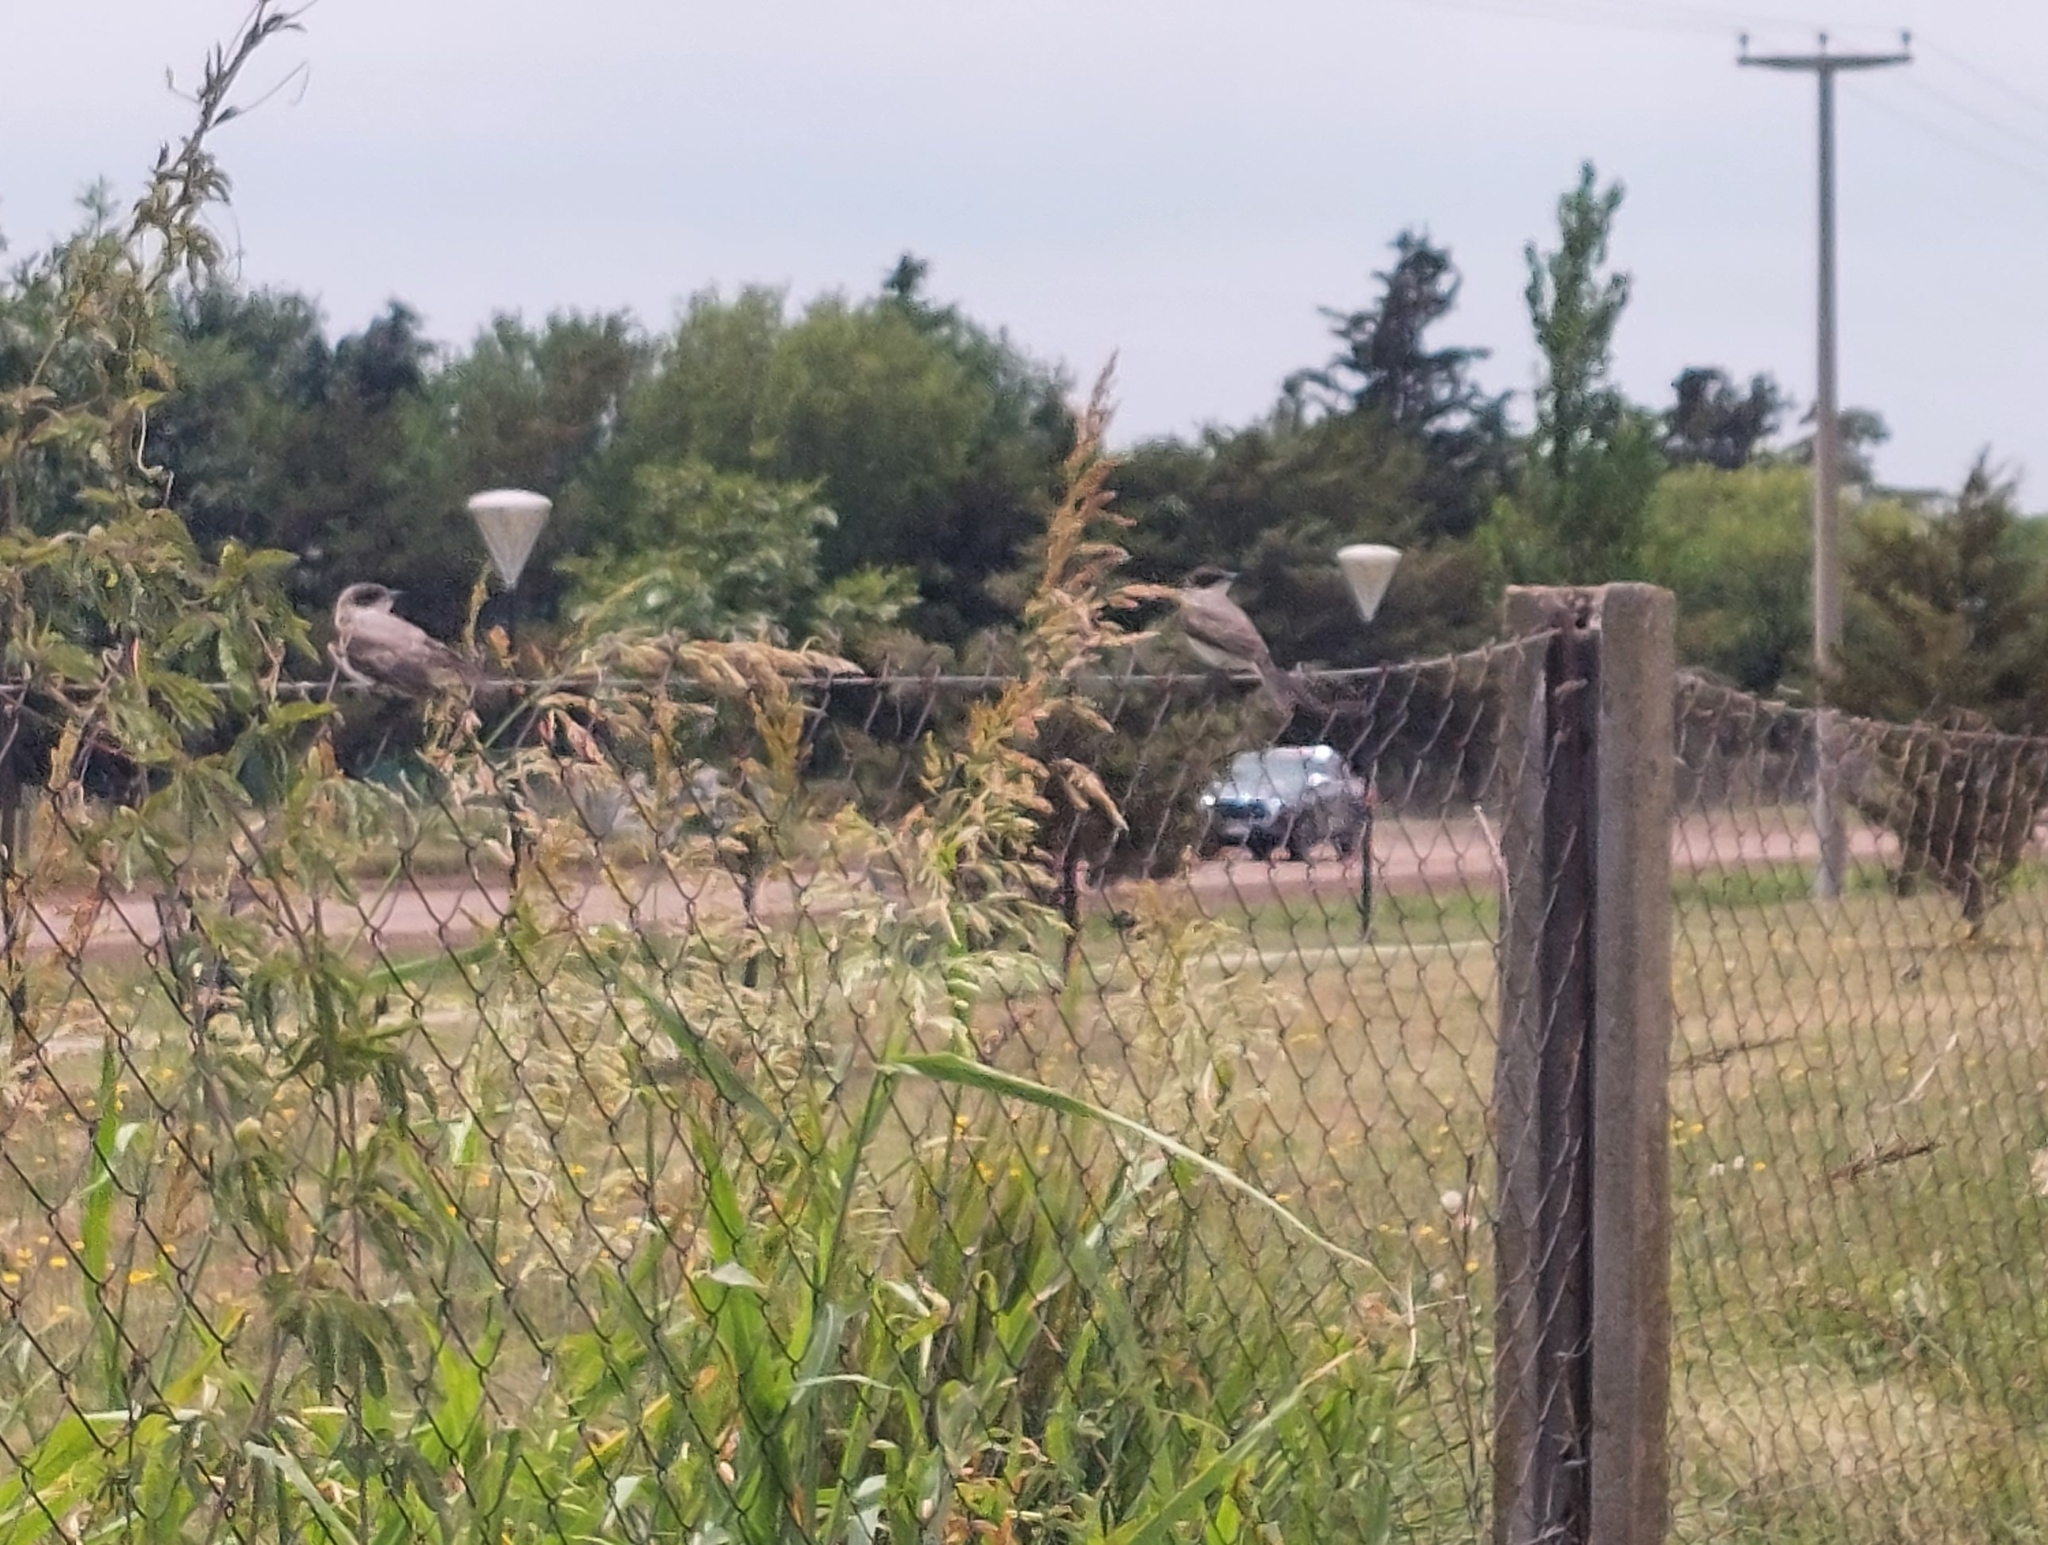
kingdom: Animalia
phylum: Chordata
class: Aves
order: Passeriformes
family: Tyrannidae
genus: Tyrannus
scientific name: Tyrannus savana
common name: Fork-tailed flycatcher
